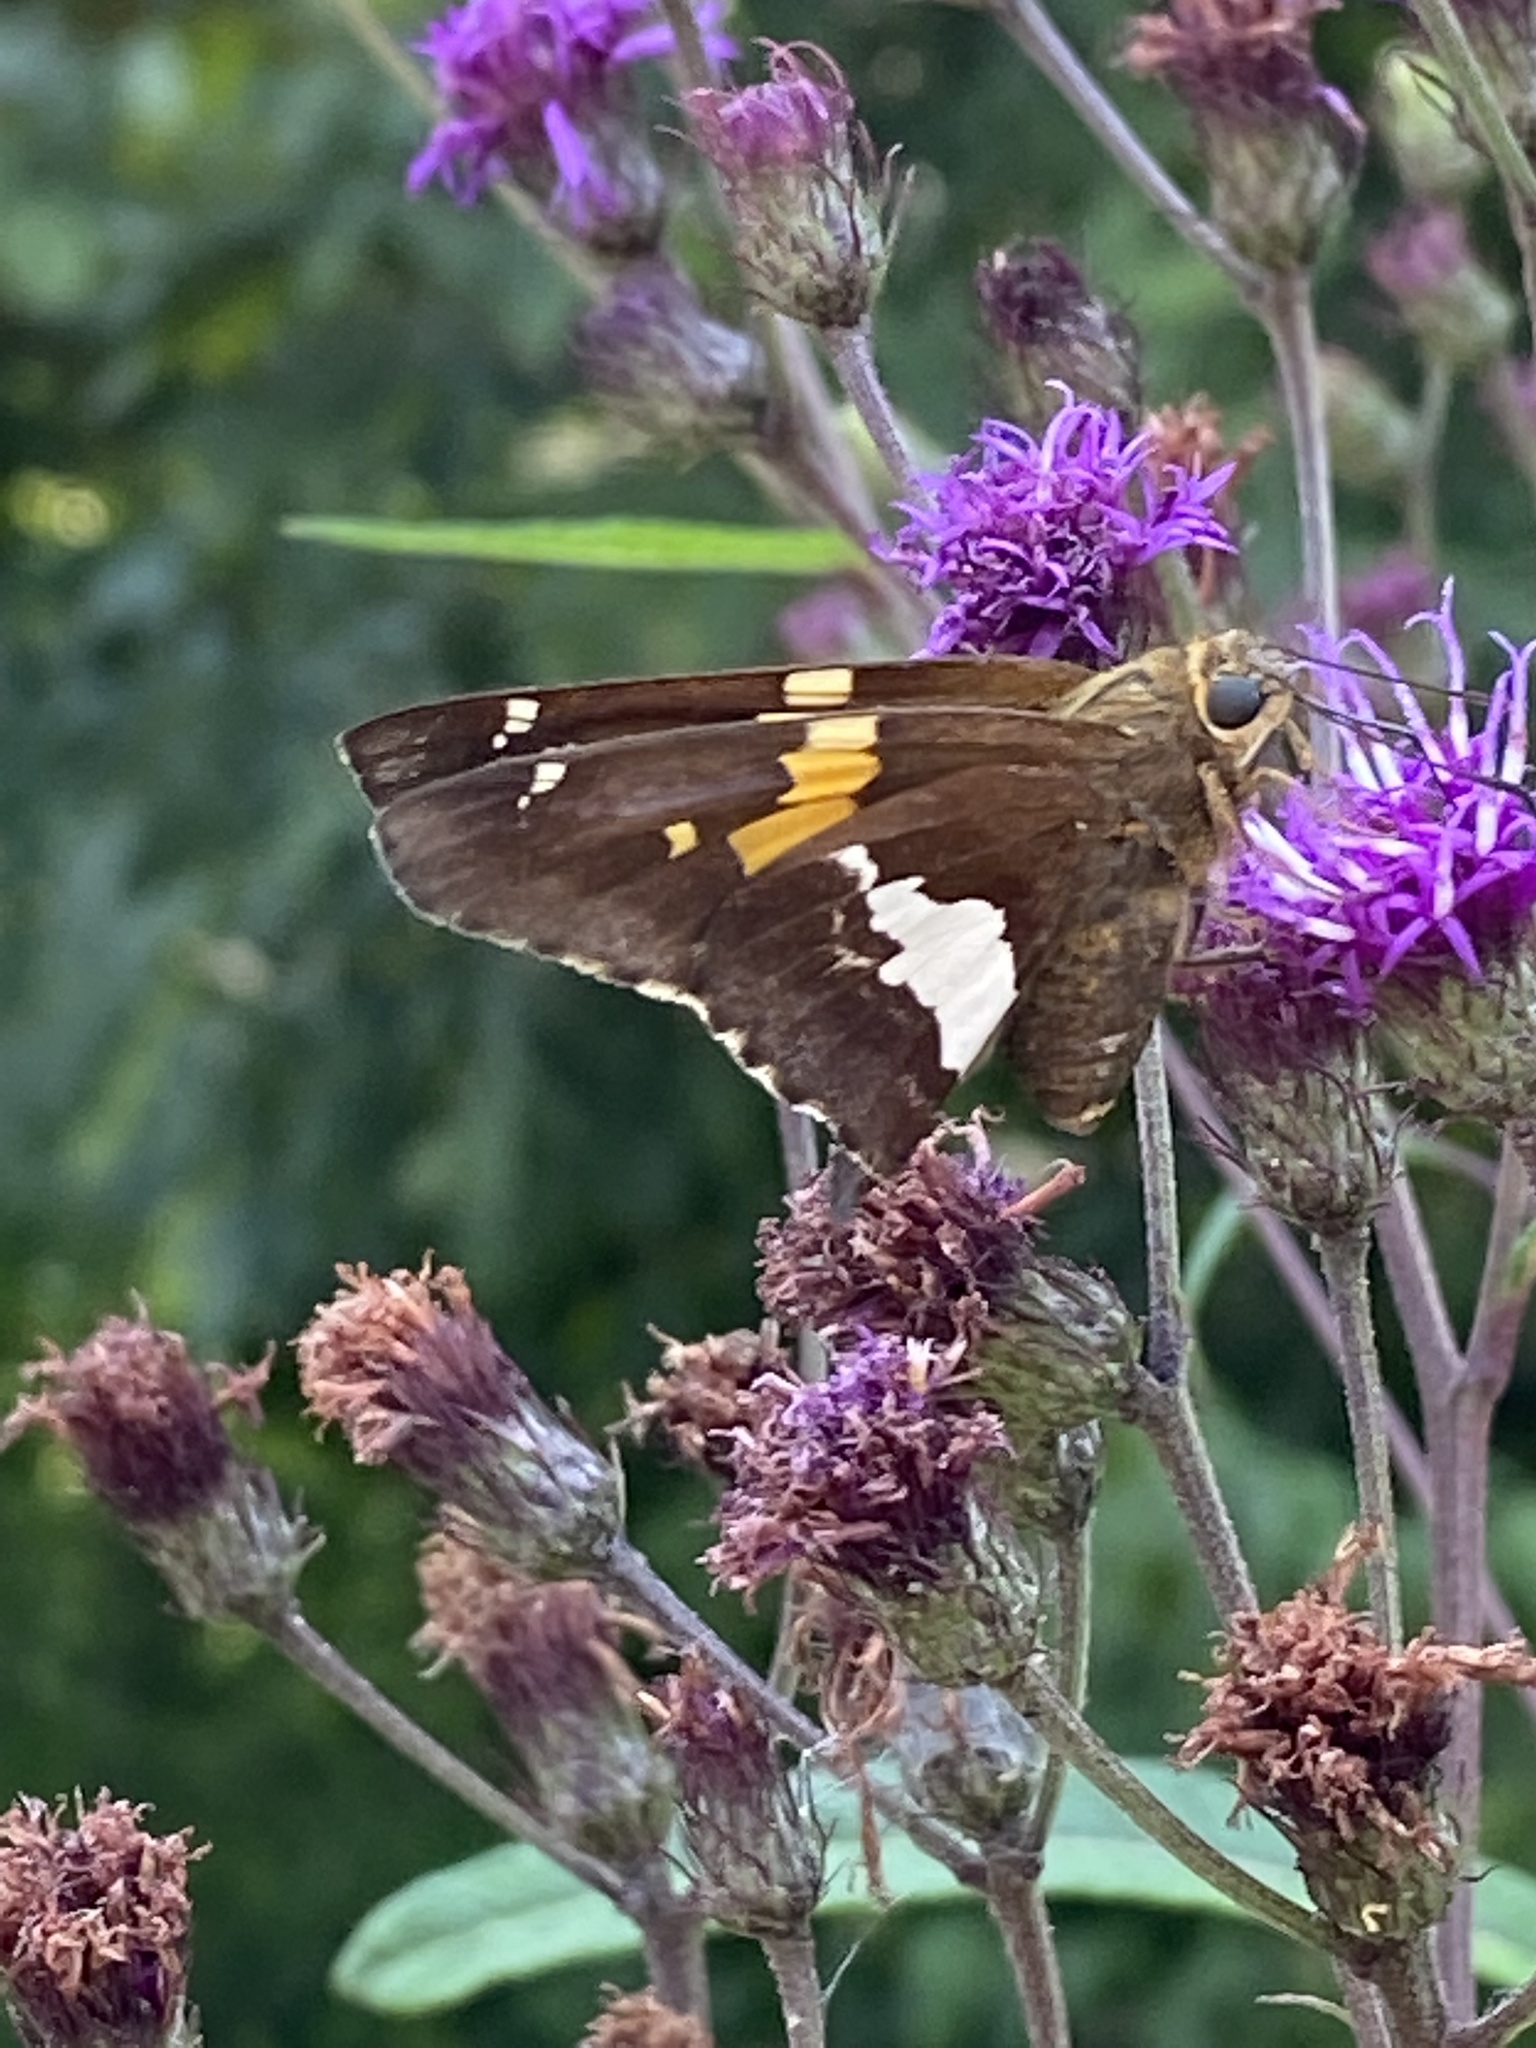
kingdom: Animalia
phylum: Arthropoda
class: Insecta
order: Lepidoptera
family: Hesperiidae
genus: Epargyreus
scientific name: Epargyreus clarus
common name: Silver-spotted skipper
